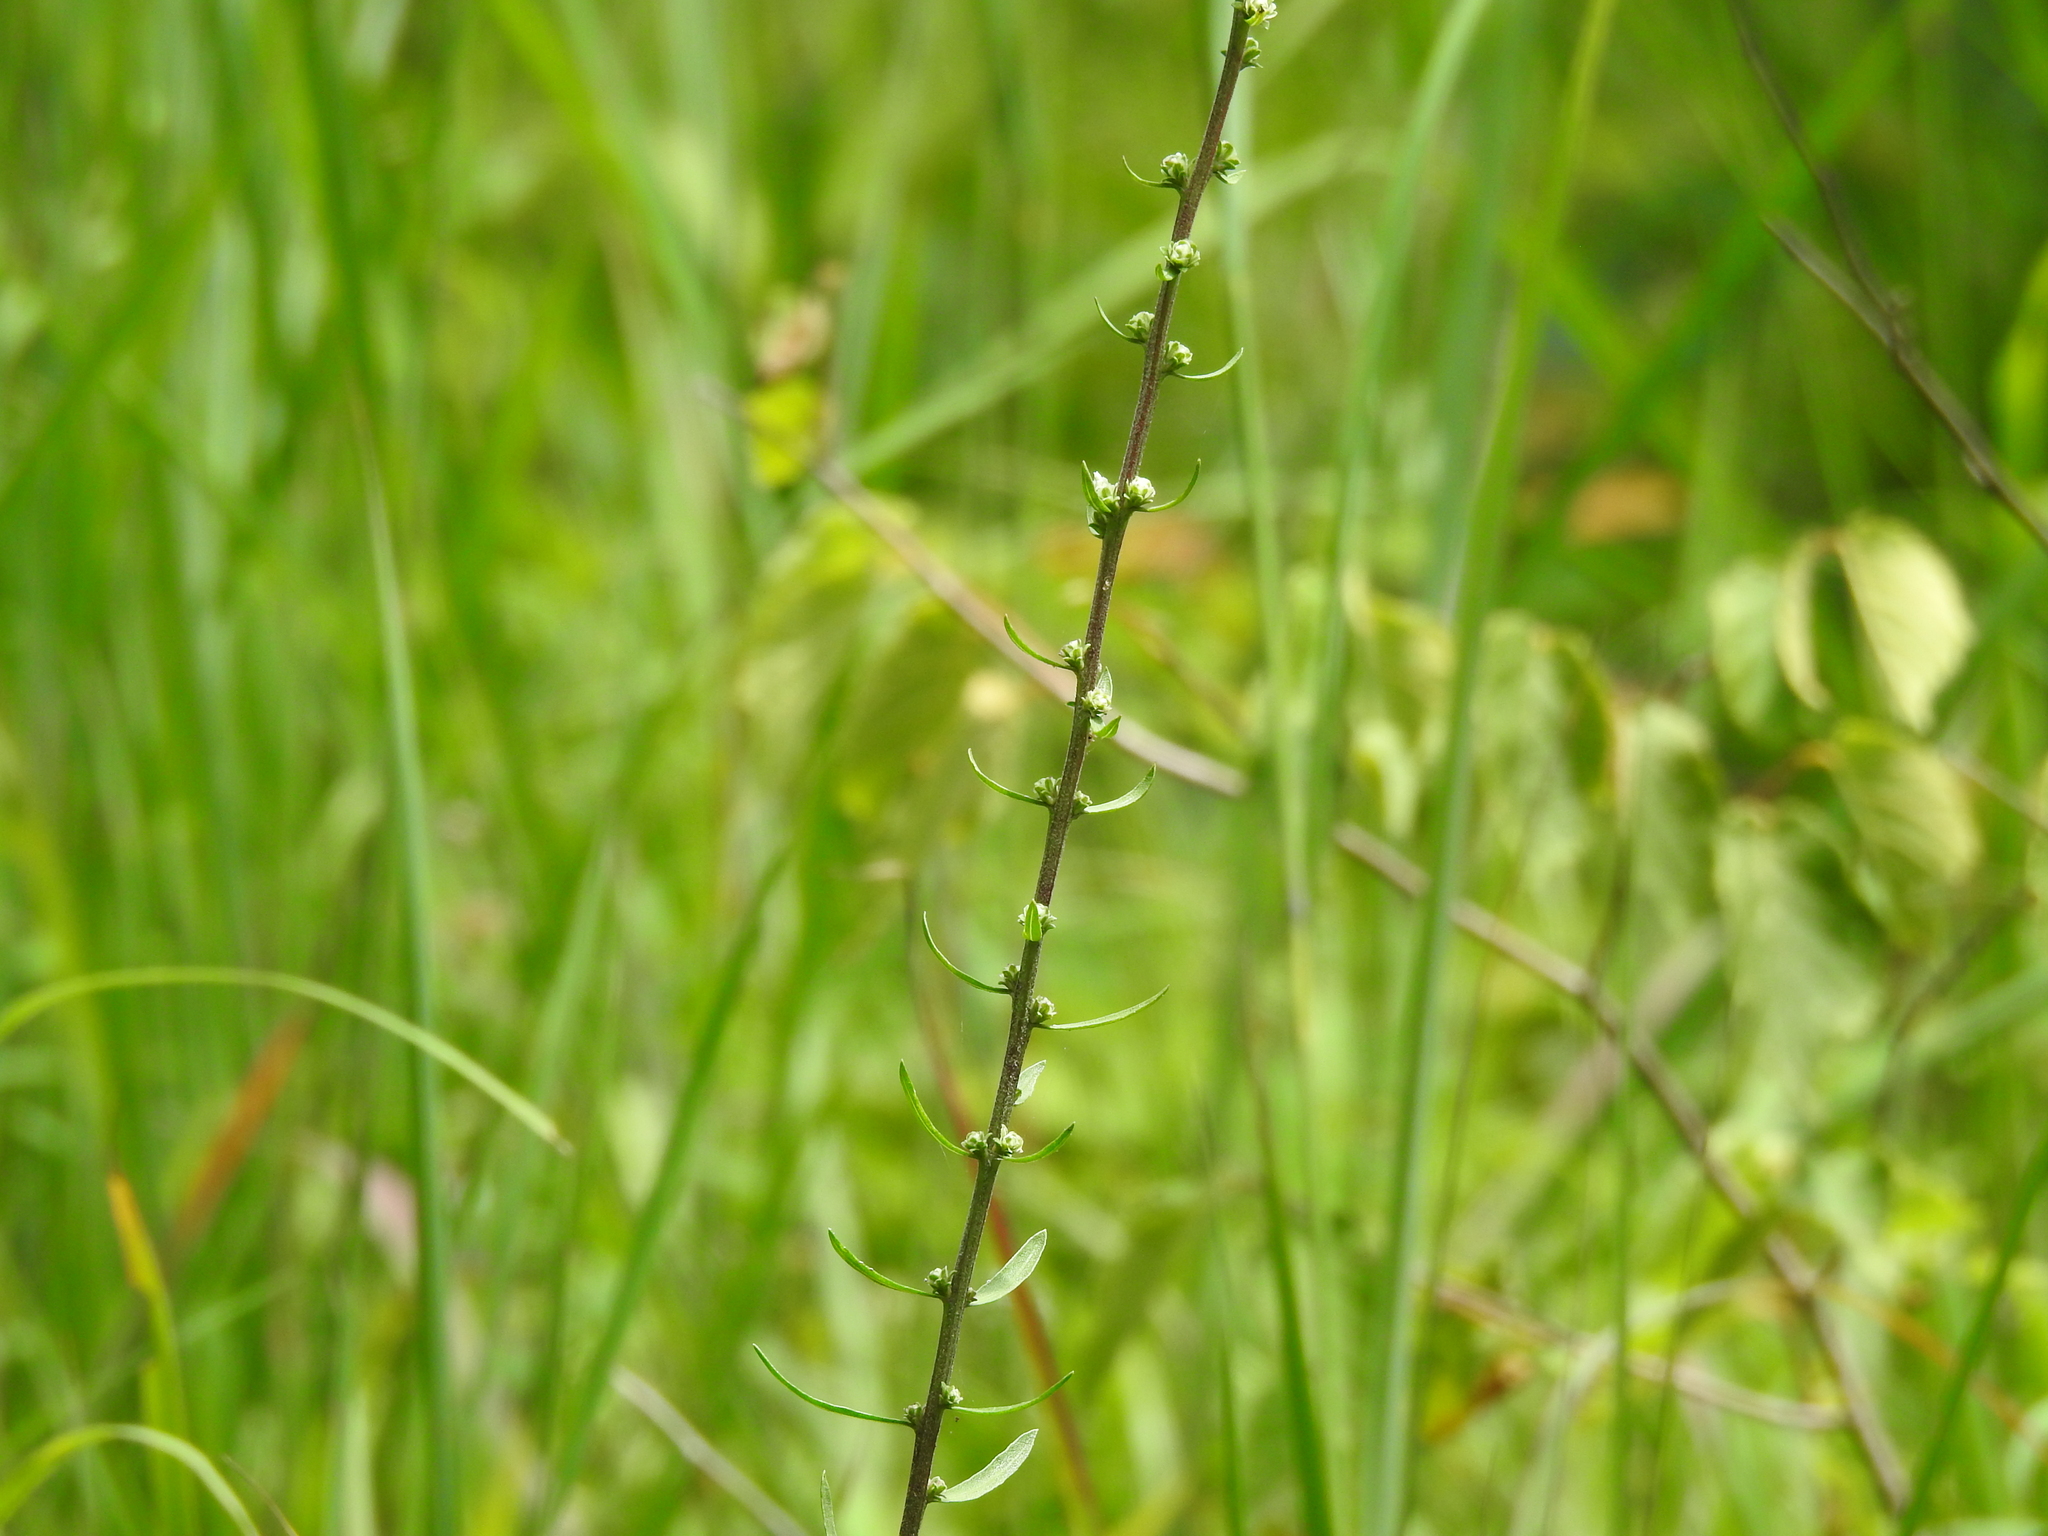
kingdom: Plantae
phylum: Tracheophyta
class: Magnoliopsida
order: Asterales
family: Asteraceae
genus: Liatris
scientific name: Liatris aspera
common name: Lacerate blazing-star
